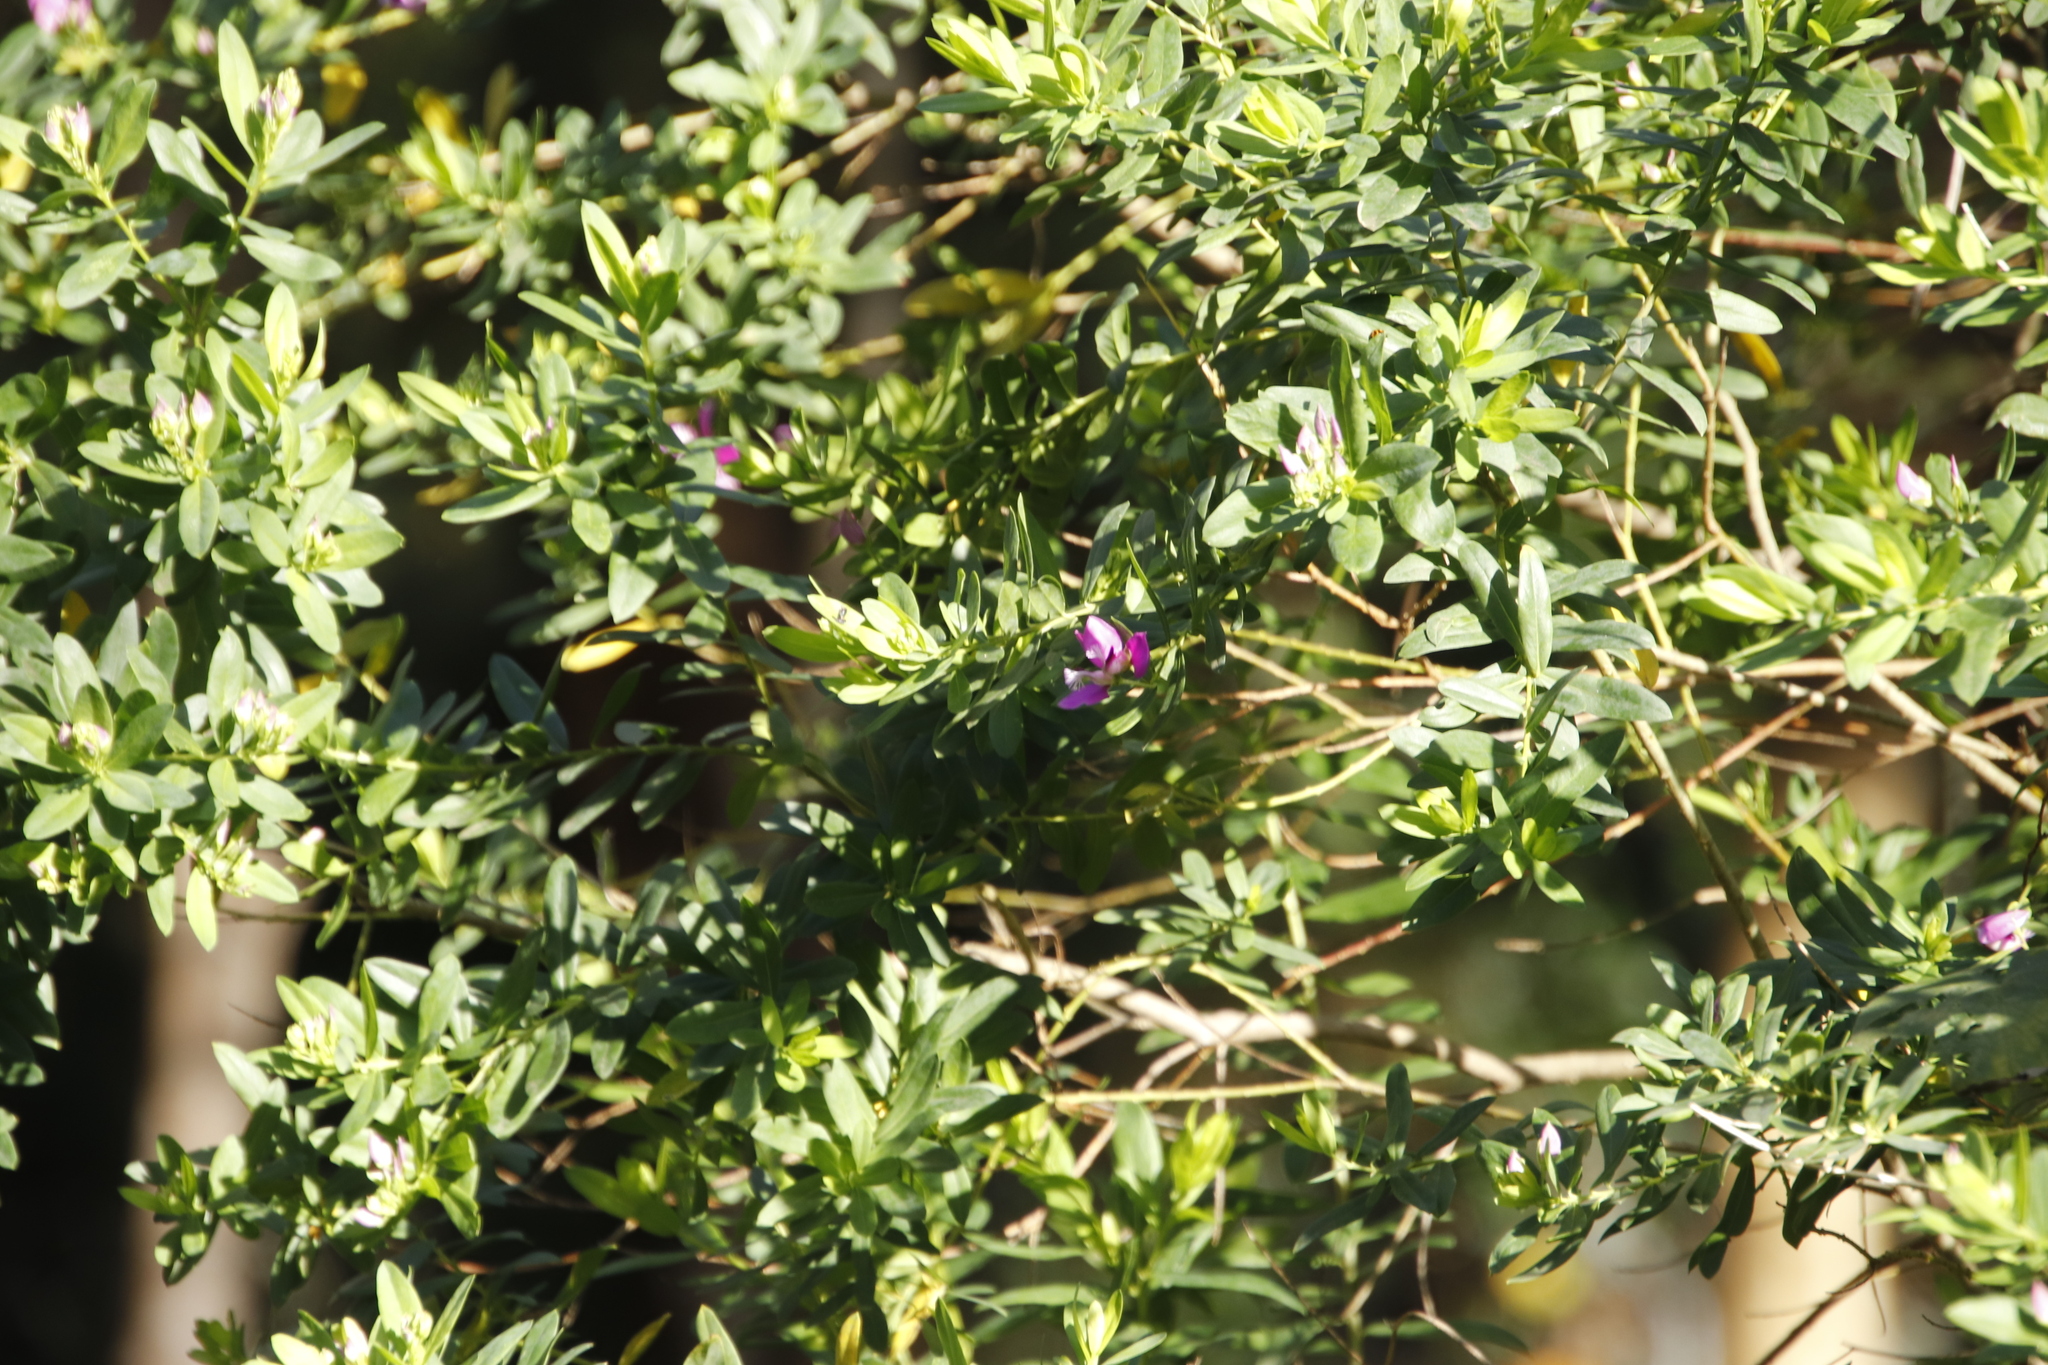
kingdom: Plantae
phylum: Tracheophyta
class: Magnoliopsida
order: Fabales
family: Polygalaceae
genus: Polygala
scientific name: Polygala myrtifolia
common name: Myrtle-leaf milkwort
